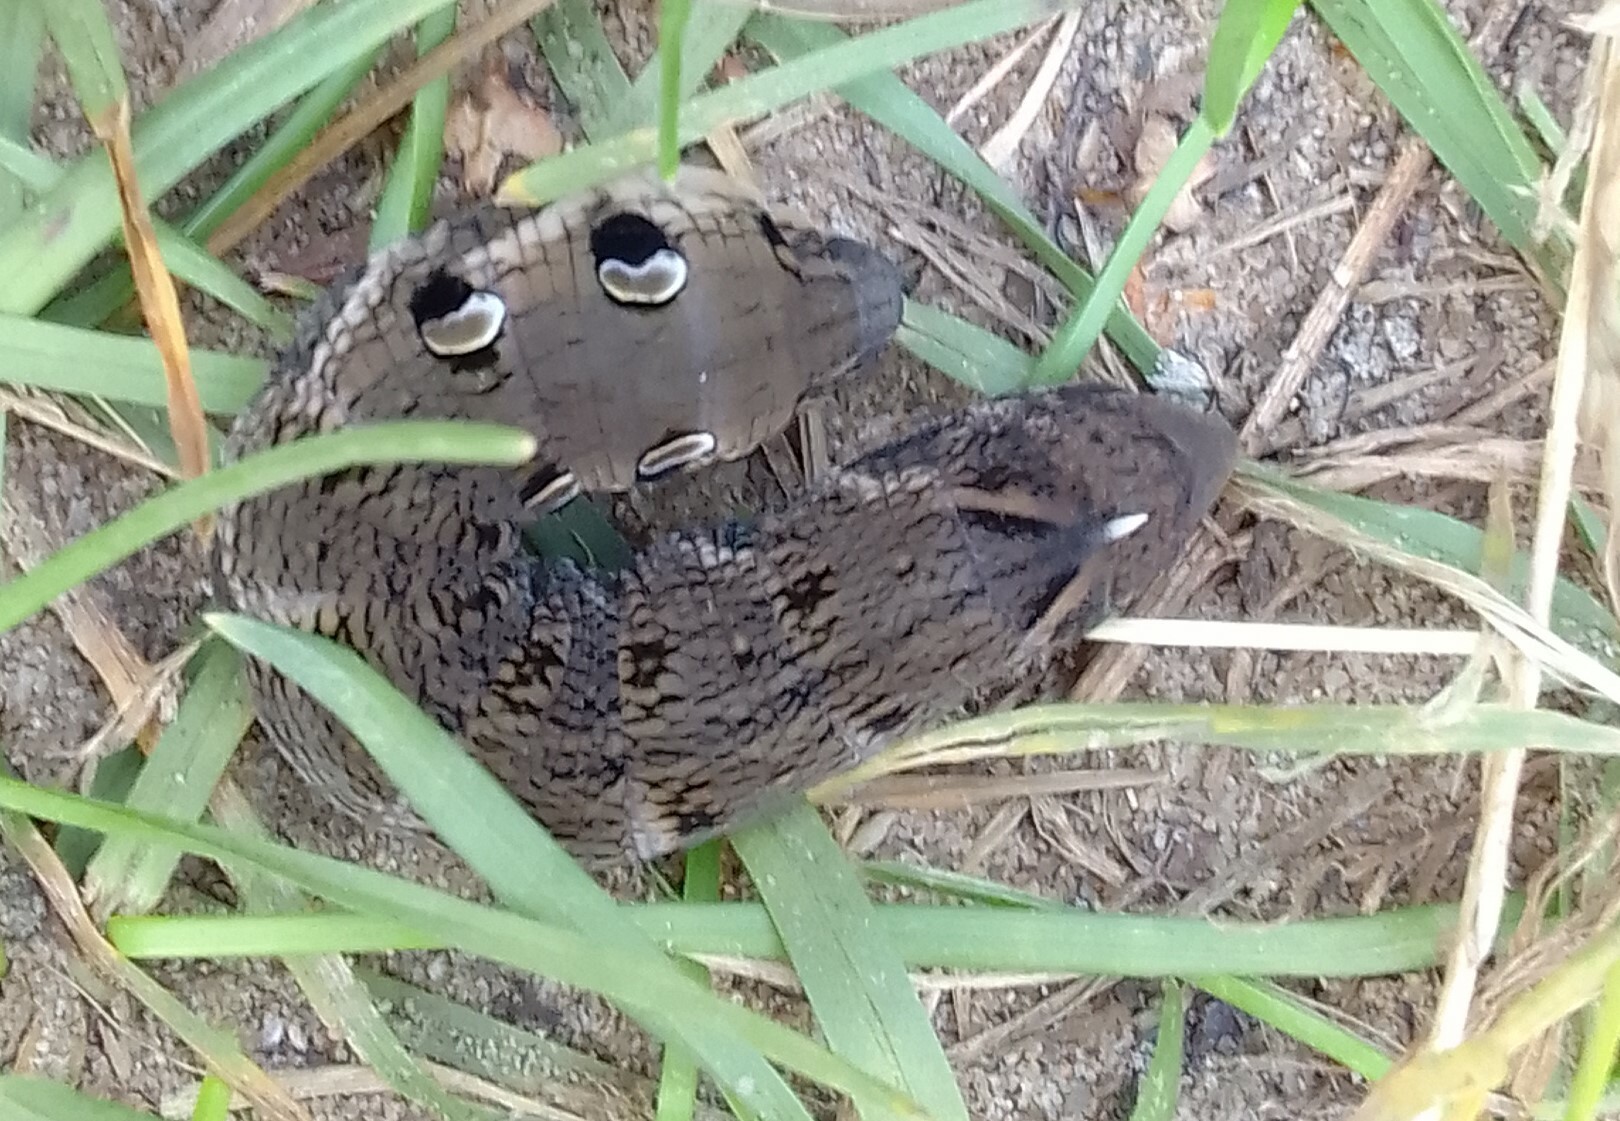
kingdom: Animalia
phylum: Arthropoda
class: Insecta
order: Lepidoptera
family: Sphingidae
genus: Deilephila
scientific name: Deilephila elpenor
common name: Elephant hawk-moth
